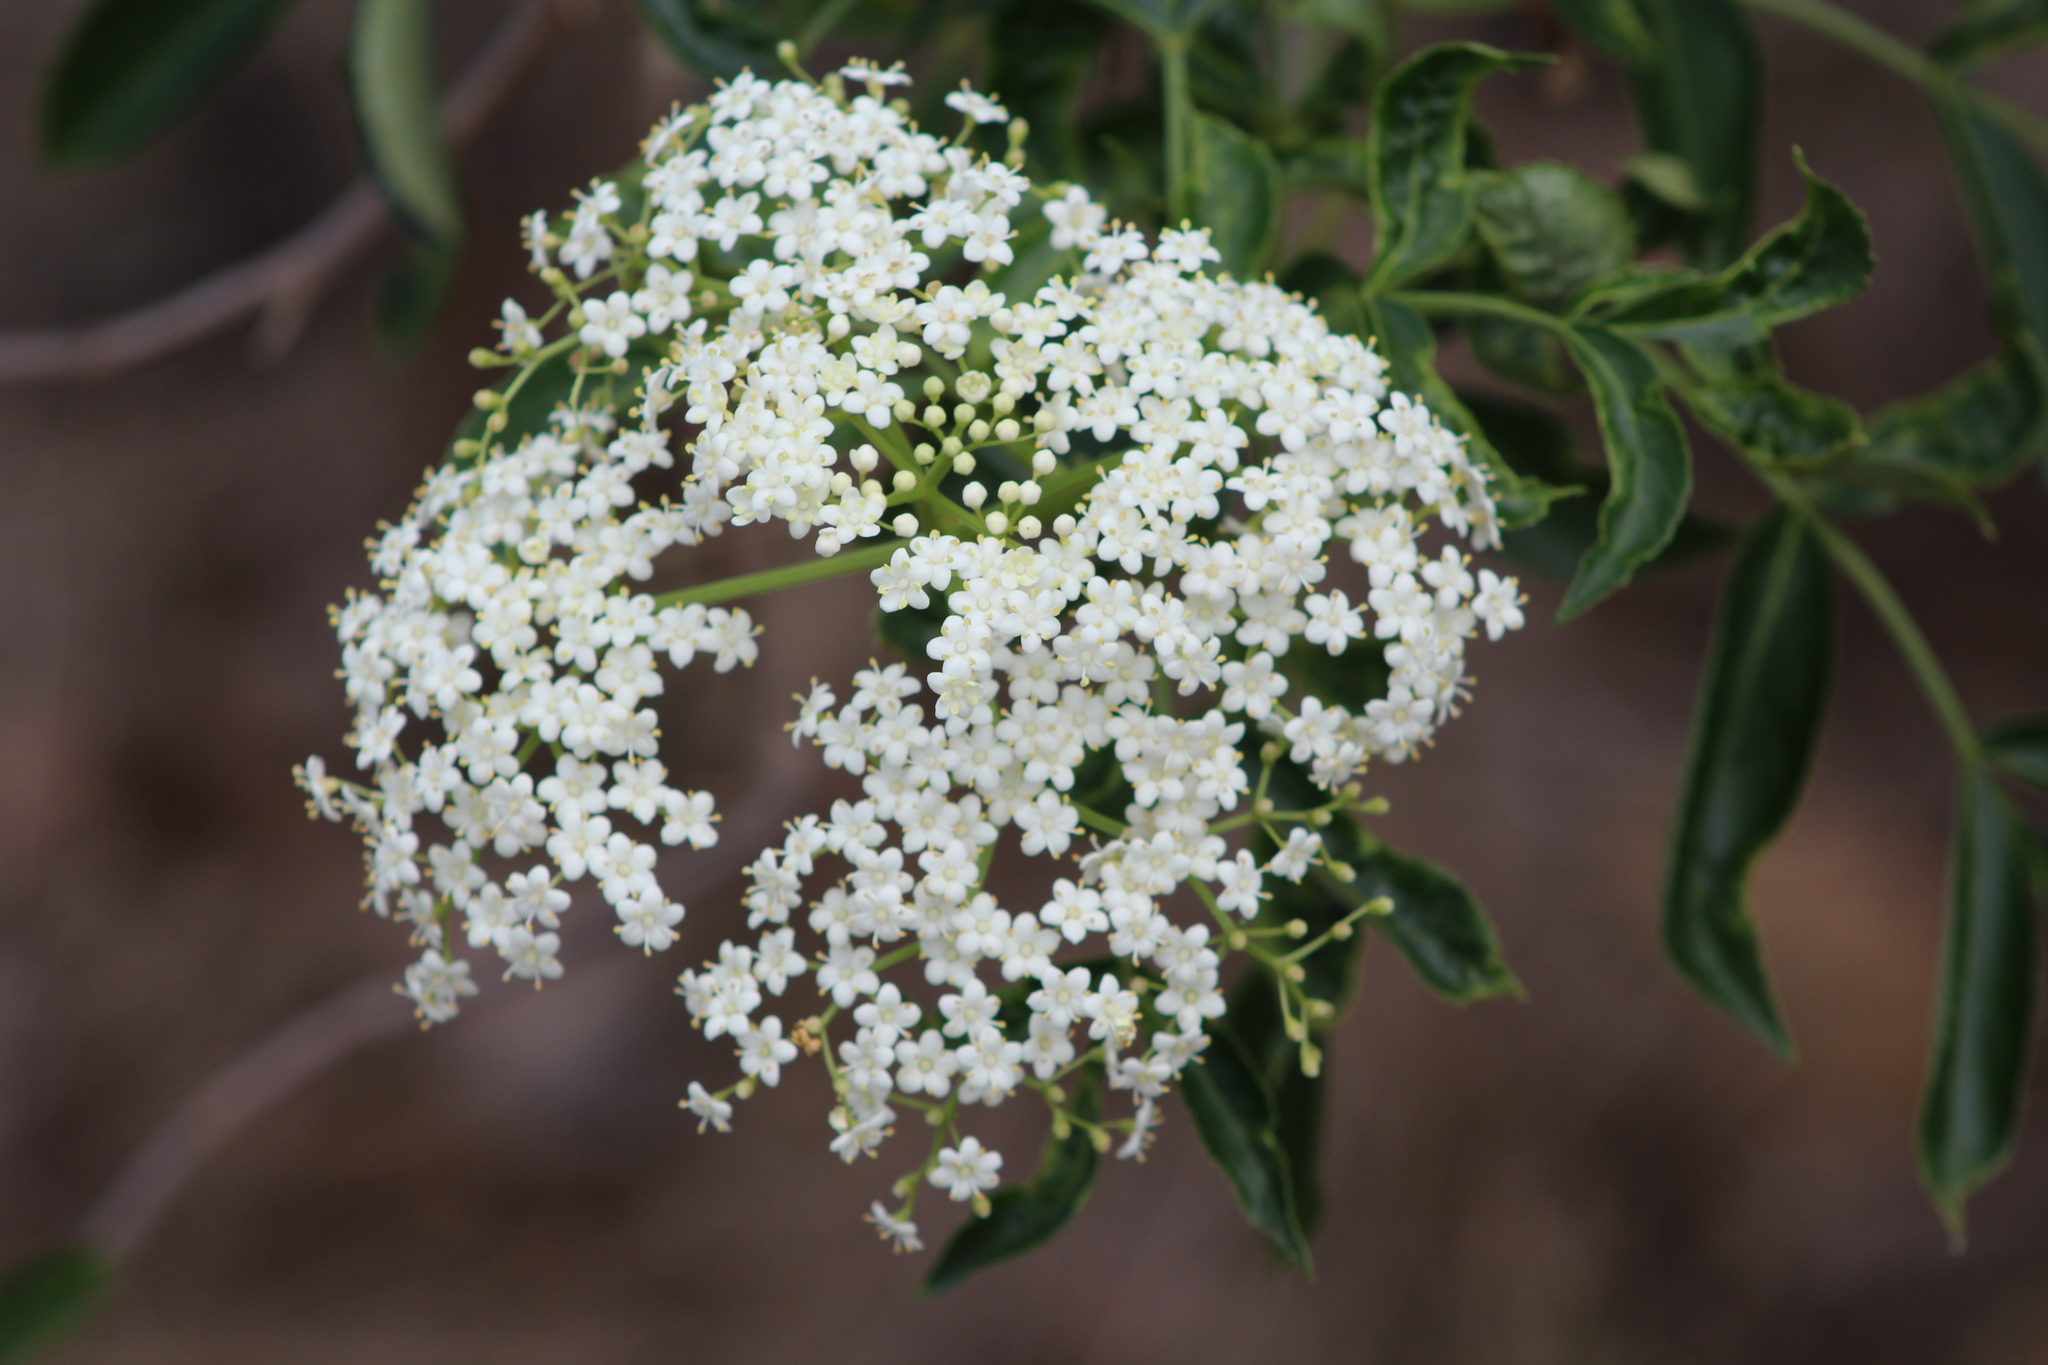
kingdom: Plantae
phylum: Tracheophyta
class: Magnoliopsida
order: Dipsacales
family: Viburnaceae
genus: Sambucus
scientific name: Sambucus canadensis
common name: American elder
